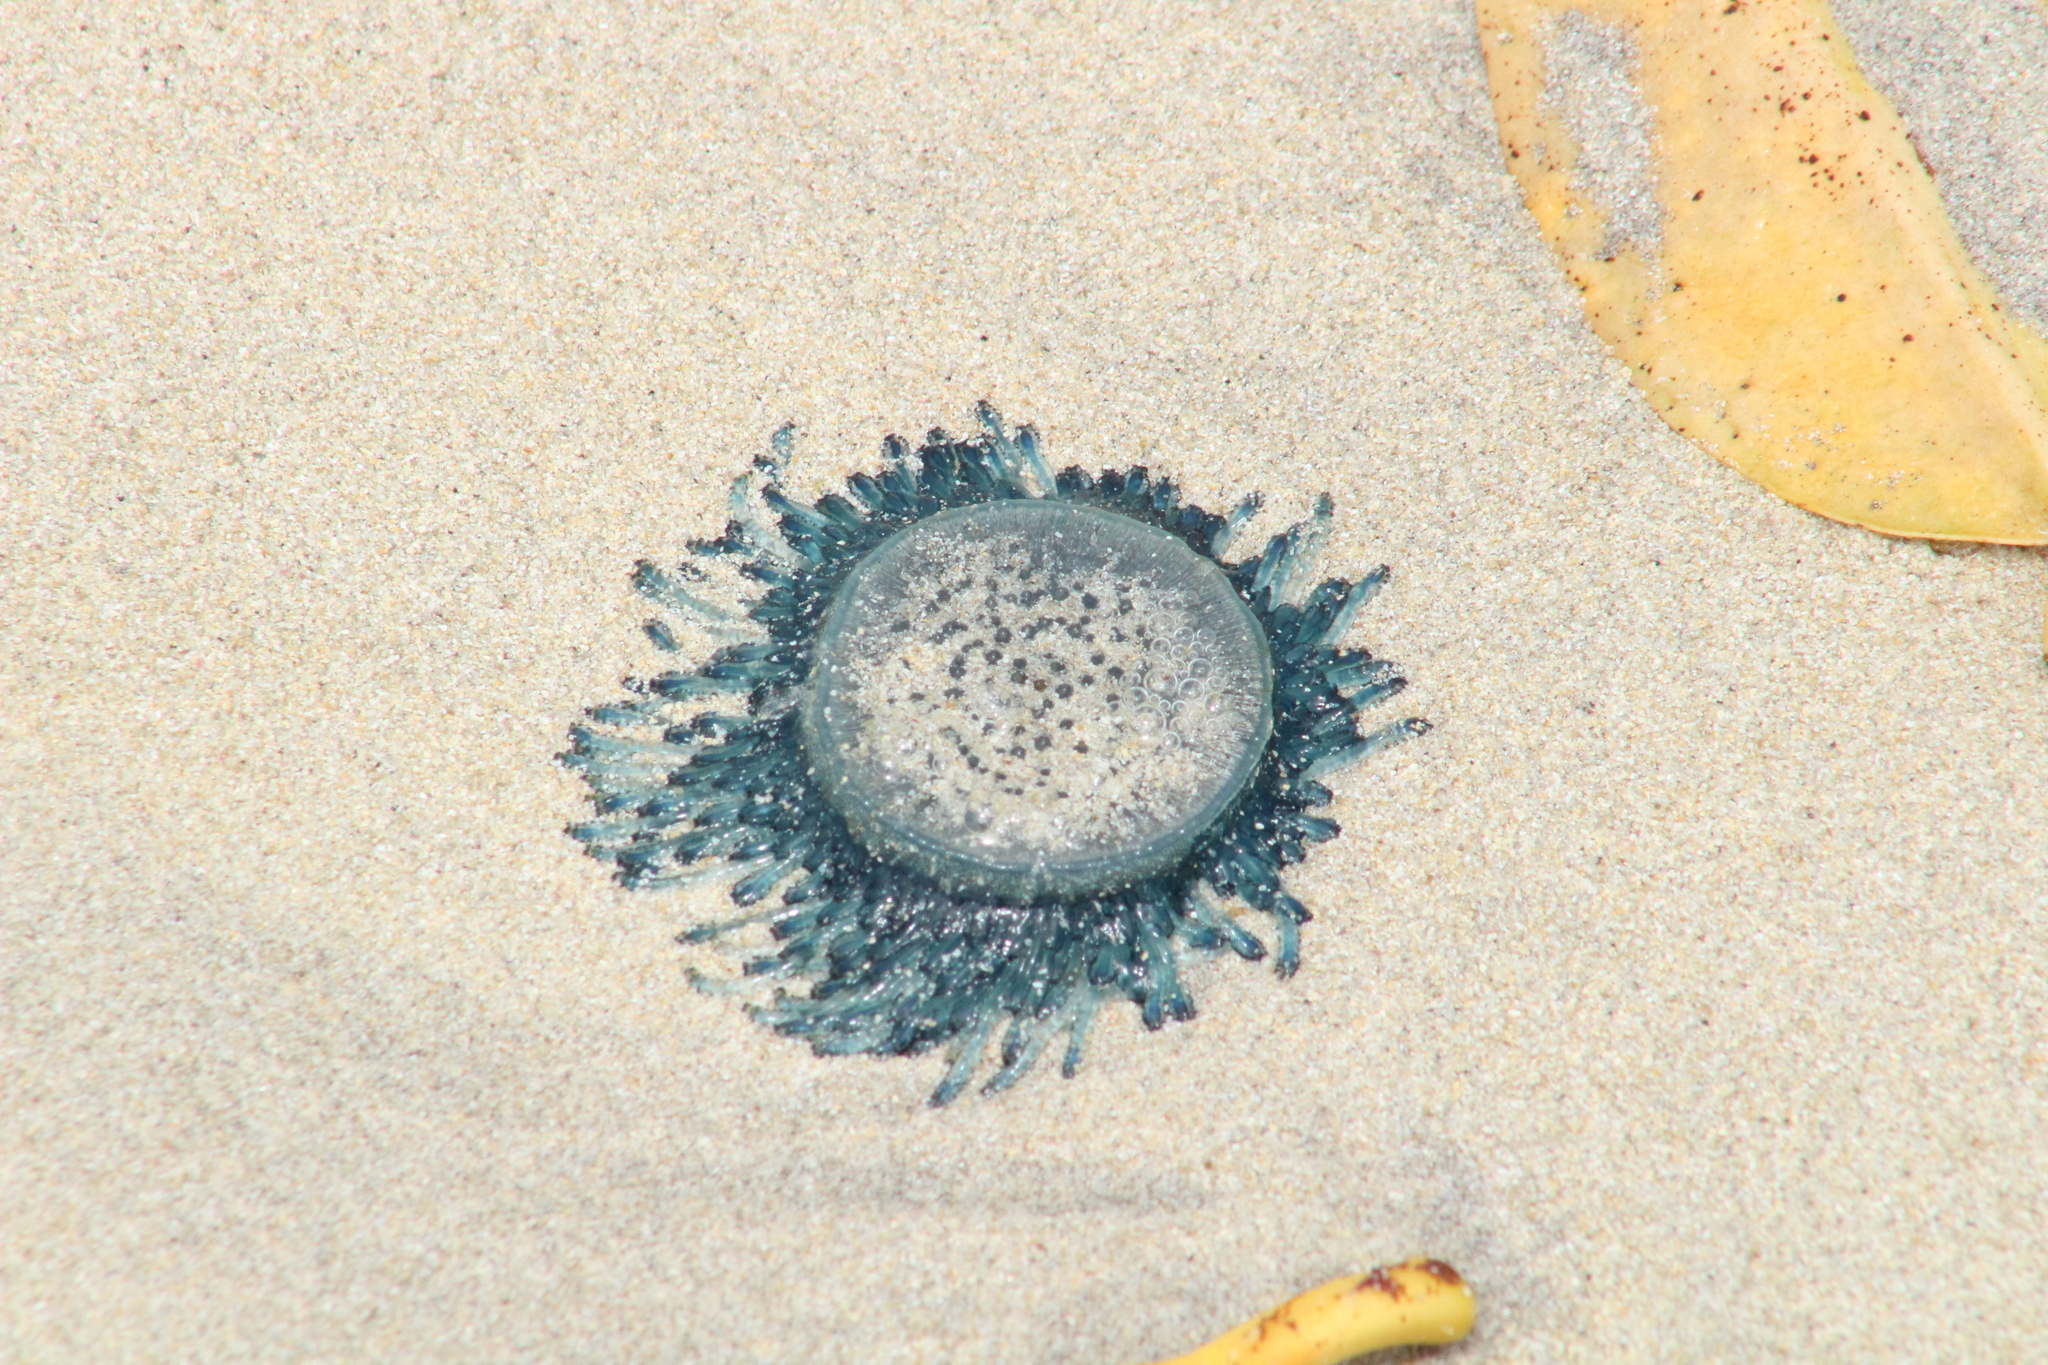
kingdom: Animalia
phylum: Cnidaria
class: Hydrozoa
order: Anthoathecata
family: Porpitidae
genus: Porpita
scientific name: Porpita porpita
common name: Blue button
